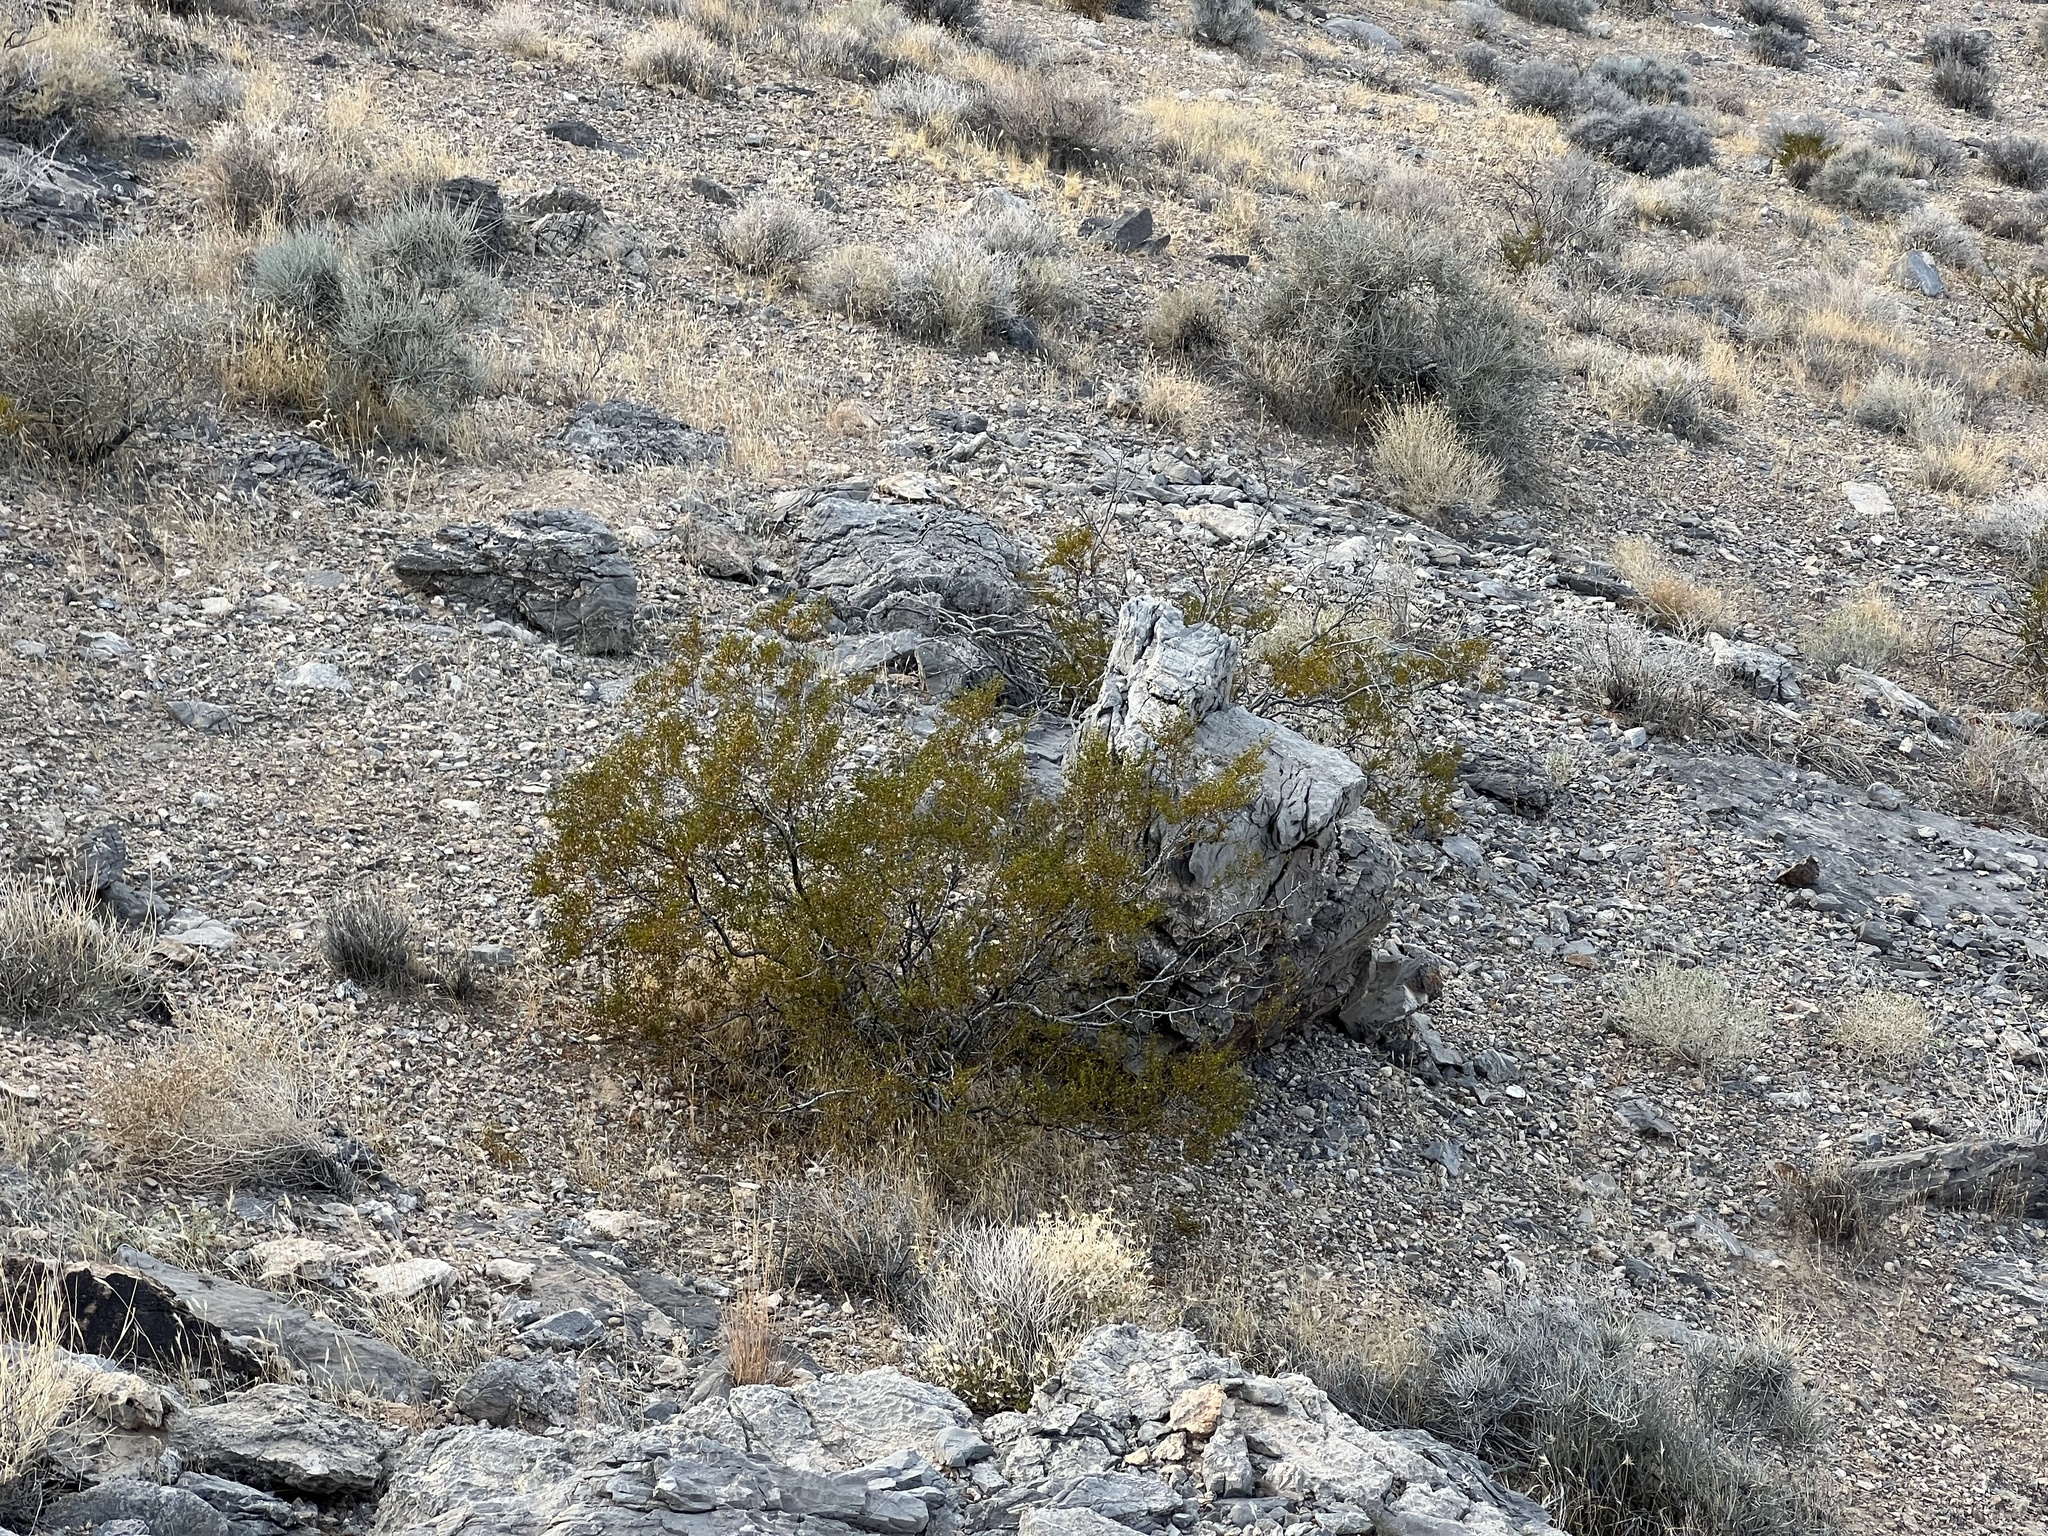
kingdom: Plantae
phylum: Tracheophyta
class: Magnoliopsida
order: Zygophyllales
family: Zygophyllaceae
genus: Larrea
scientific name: Larrea tridentata
